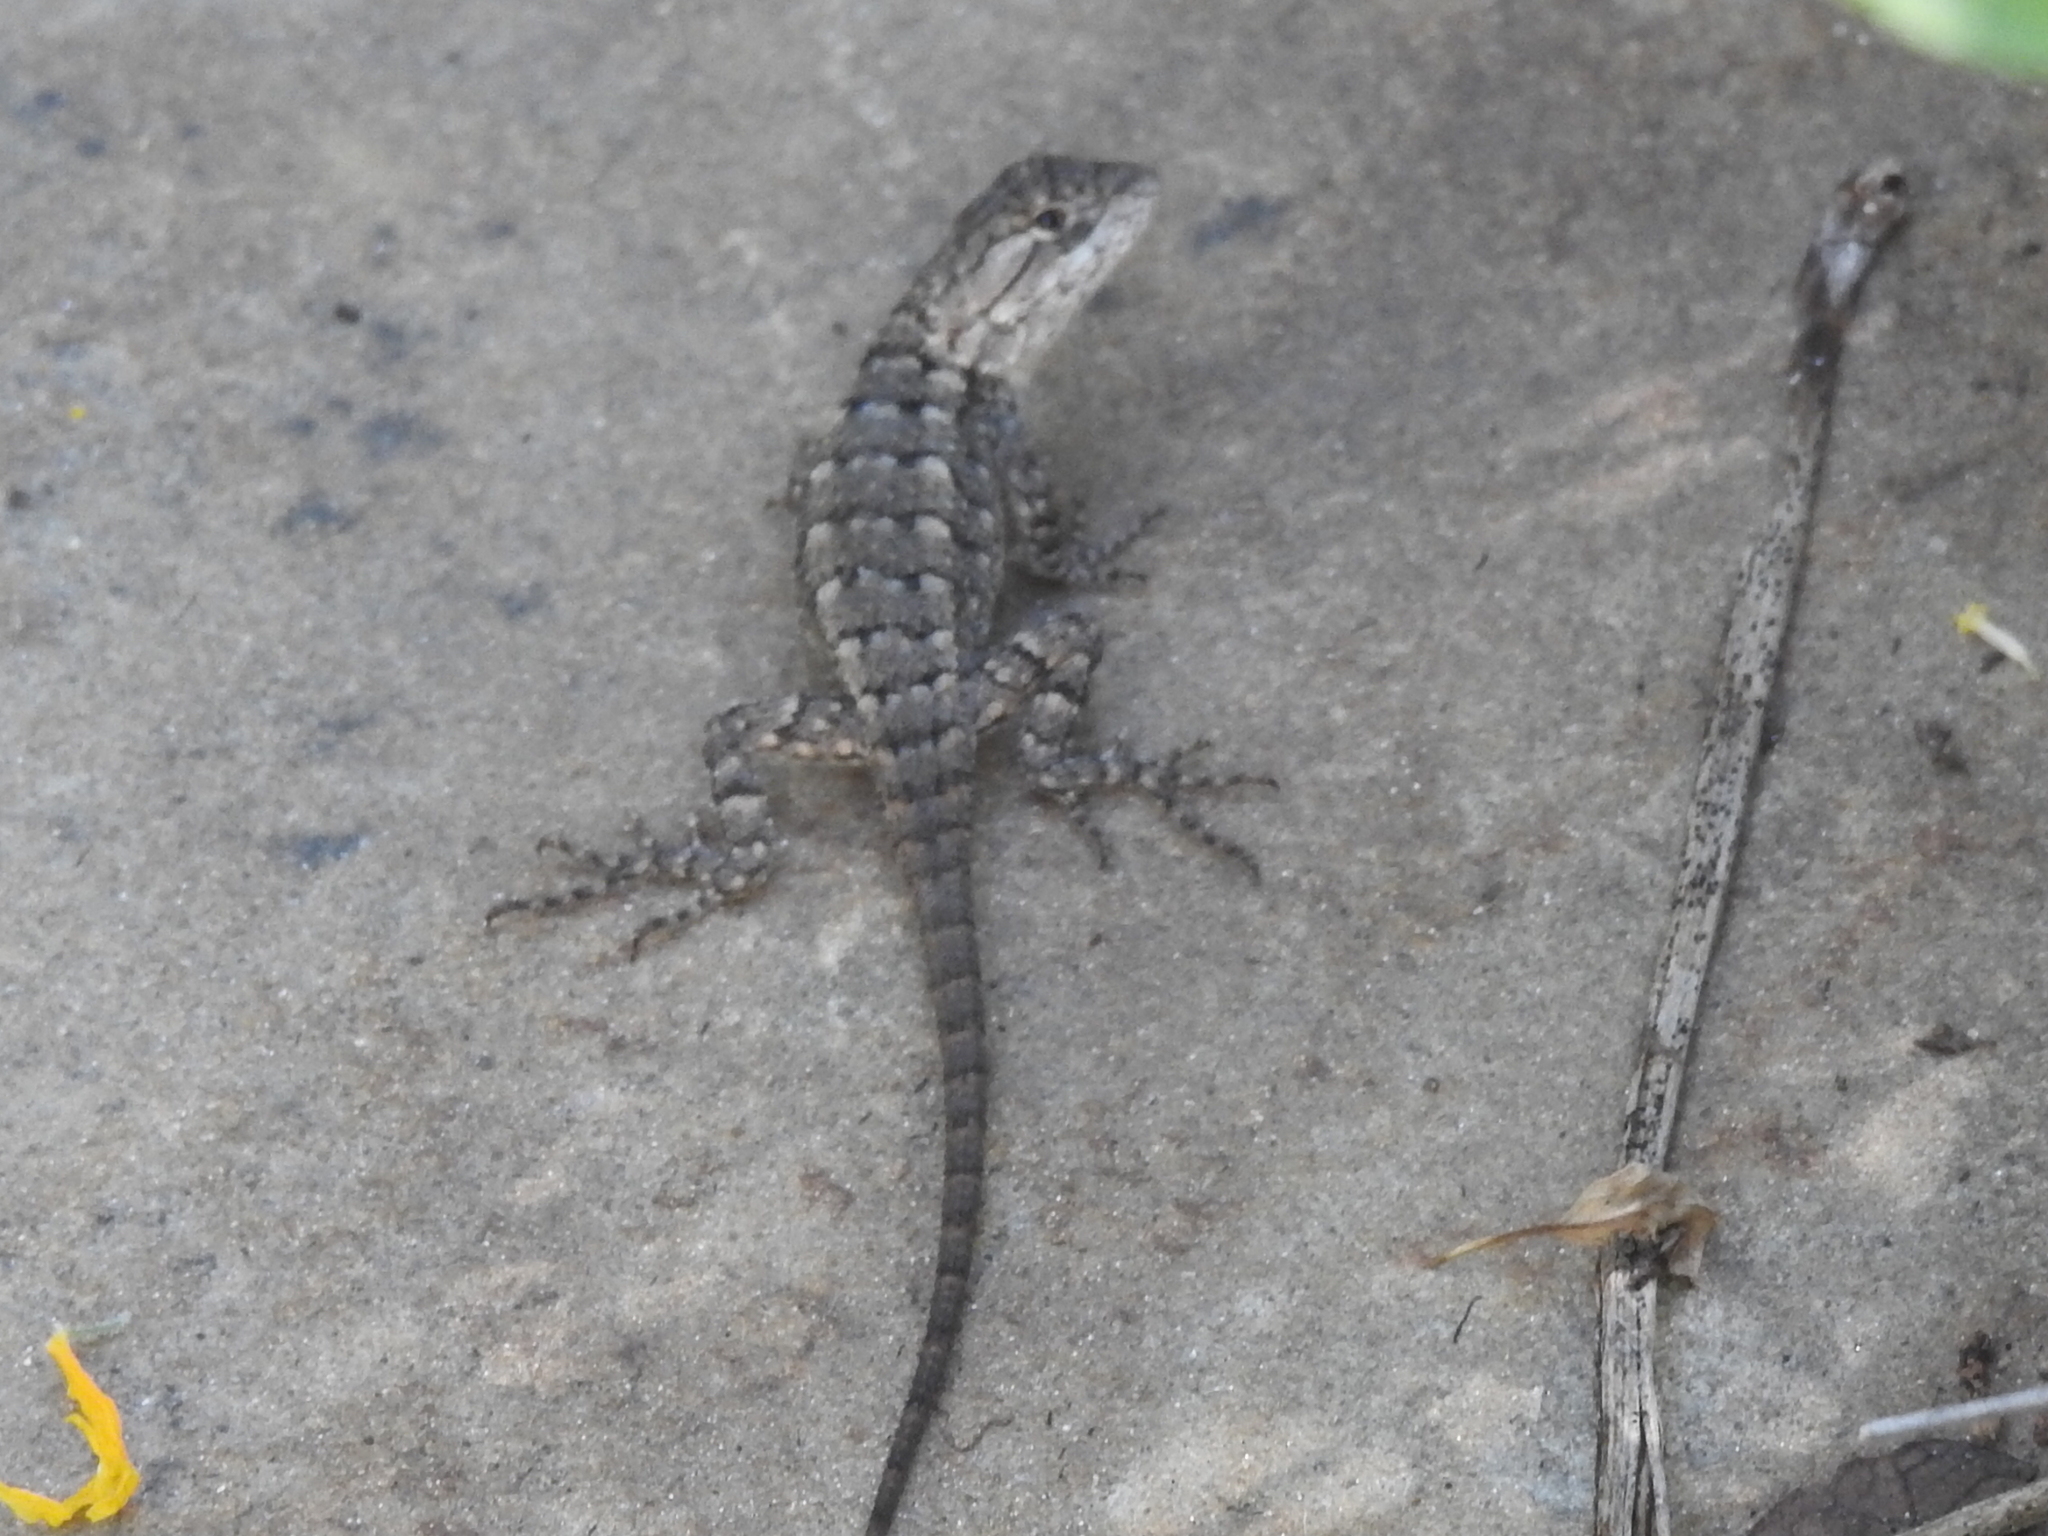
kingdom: Animalia
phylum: Chordata
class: Squamata
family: Phrynosomatidae
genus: Sceloporus
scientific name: Sceloporus olivaceus
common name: Texas spiny lizard
